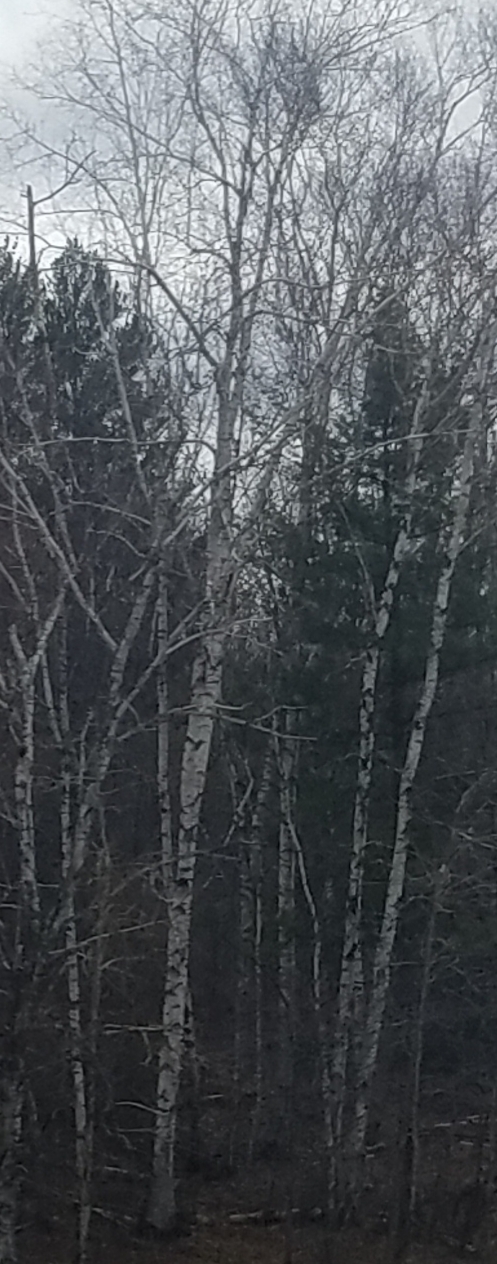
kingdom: Plantae
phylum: Tracheophyta
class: Magnoliopsida
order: Malpighiales
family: Salicaceae
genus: Populus
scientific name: Populus tremuloides
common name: Quaking aspen
